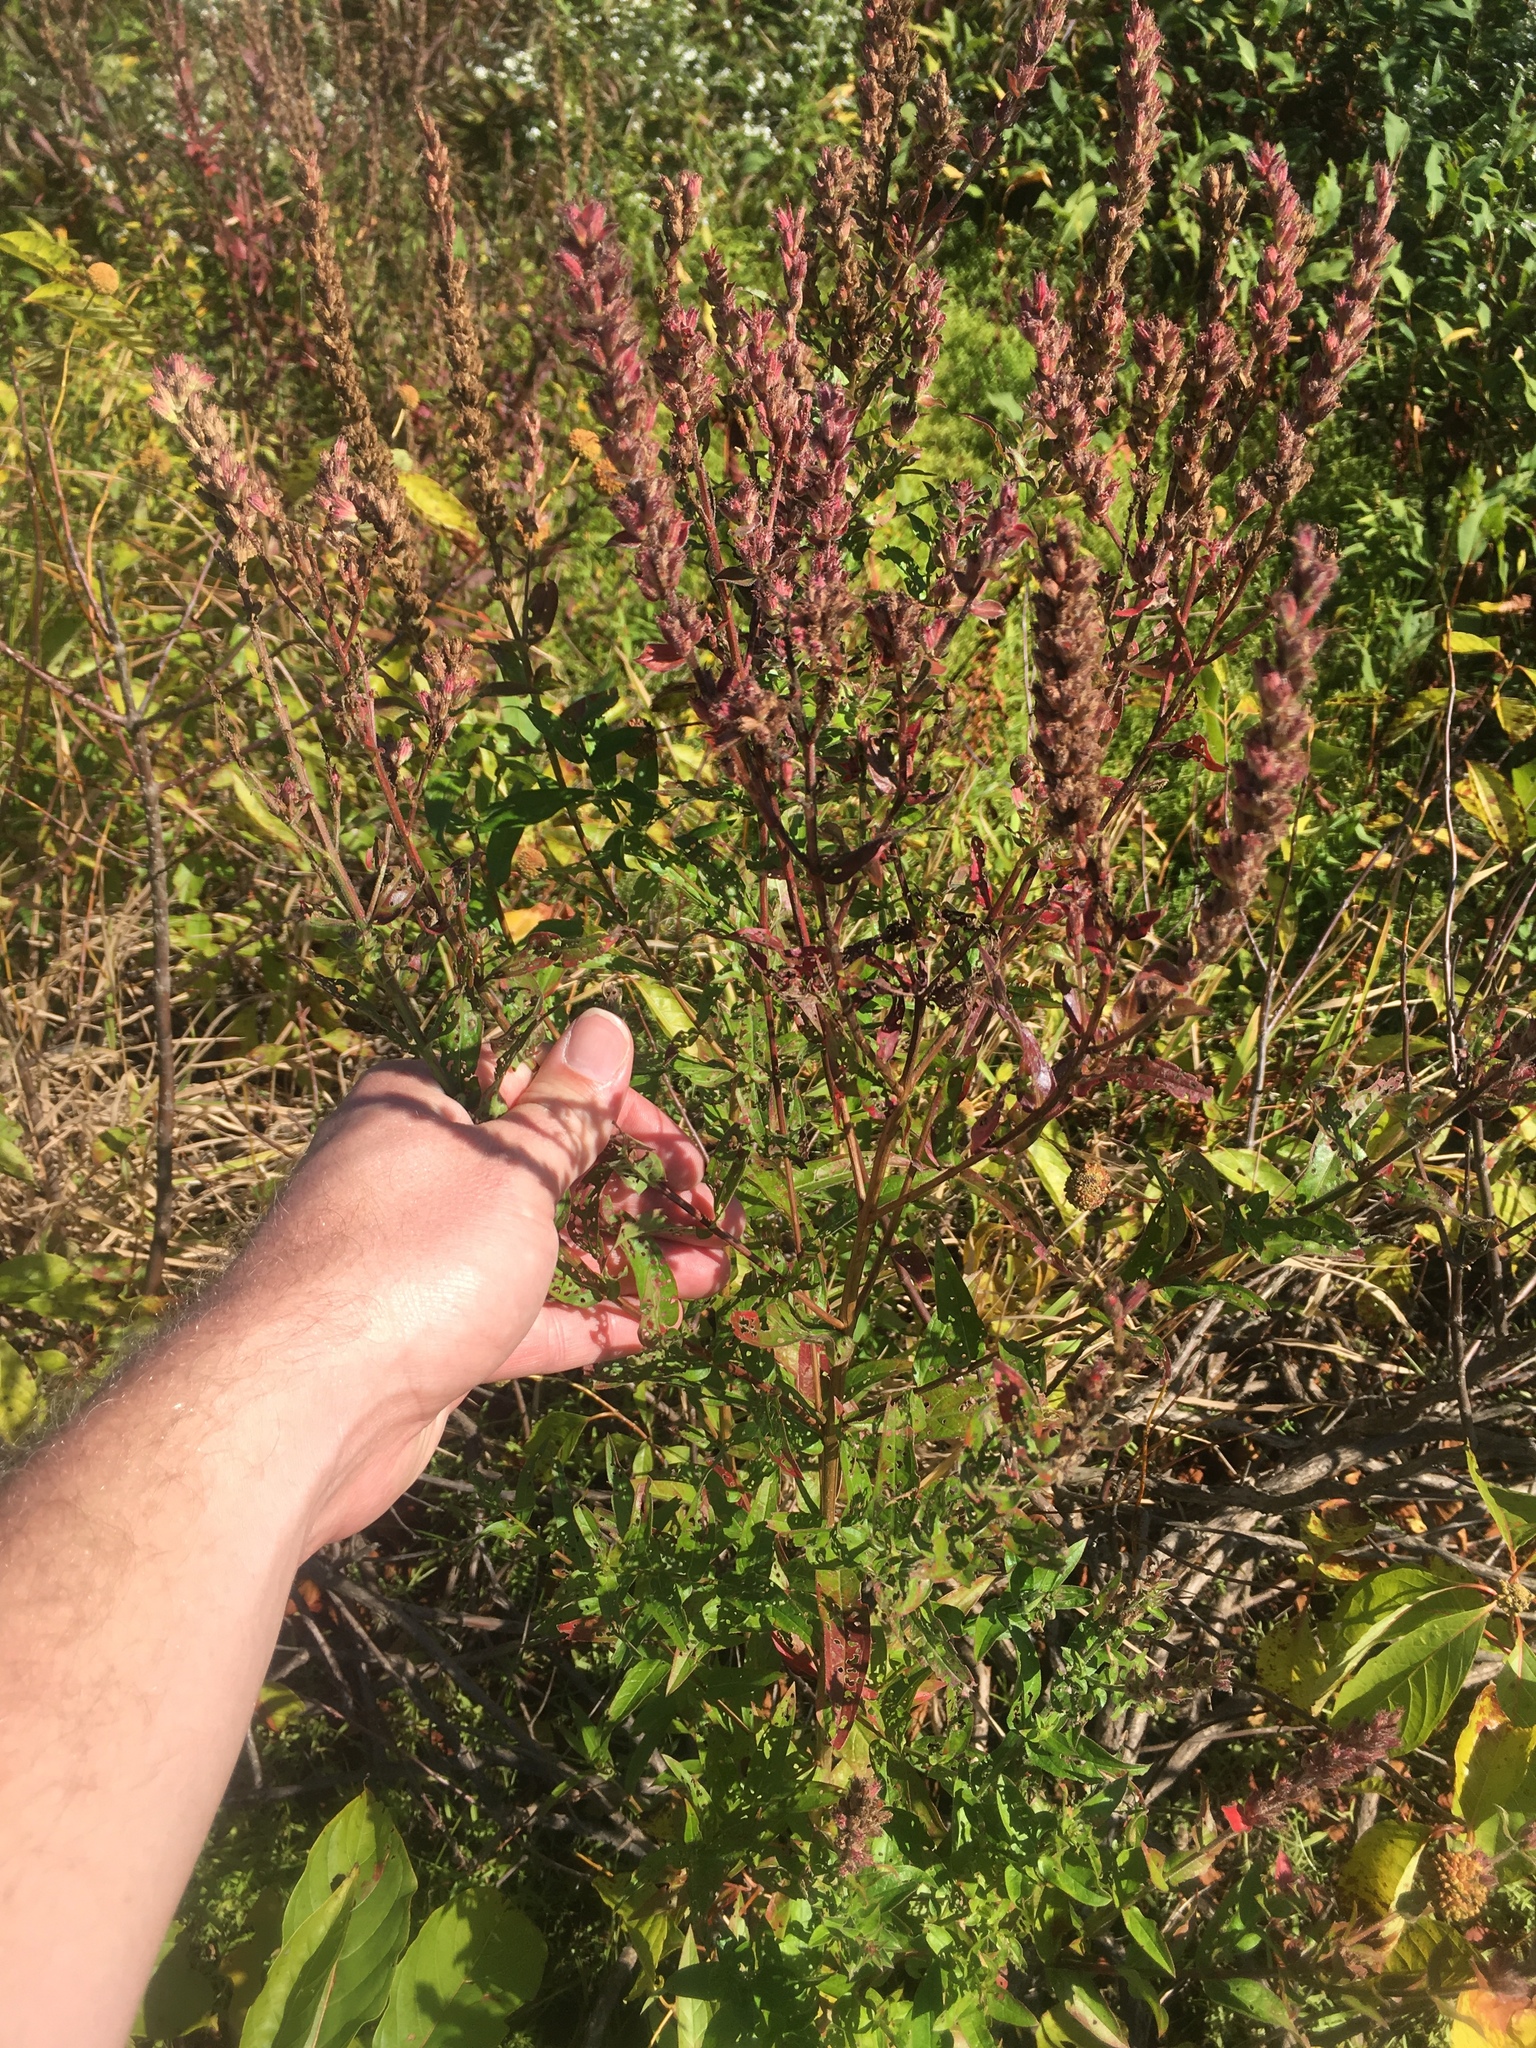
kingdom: Plantae
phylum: Tracheophyta
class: Magnoliopsida
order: Myrtales
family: Lythraceae
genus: Lythrum
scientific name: Lythrum salicaria
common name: Purple loosestrife
